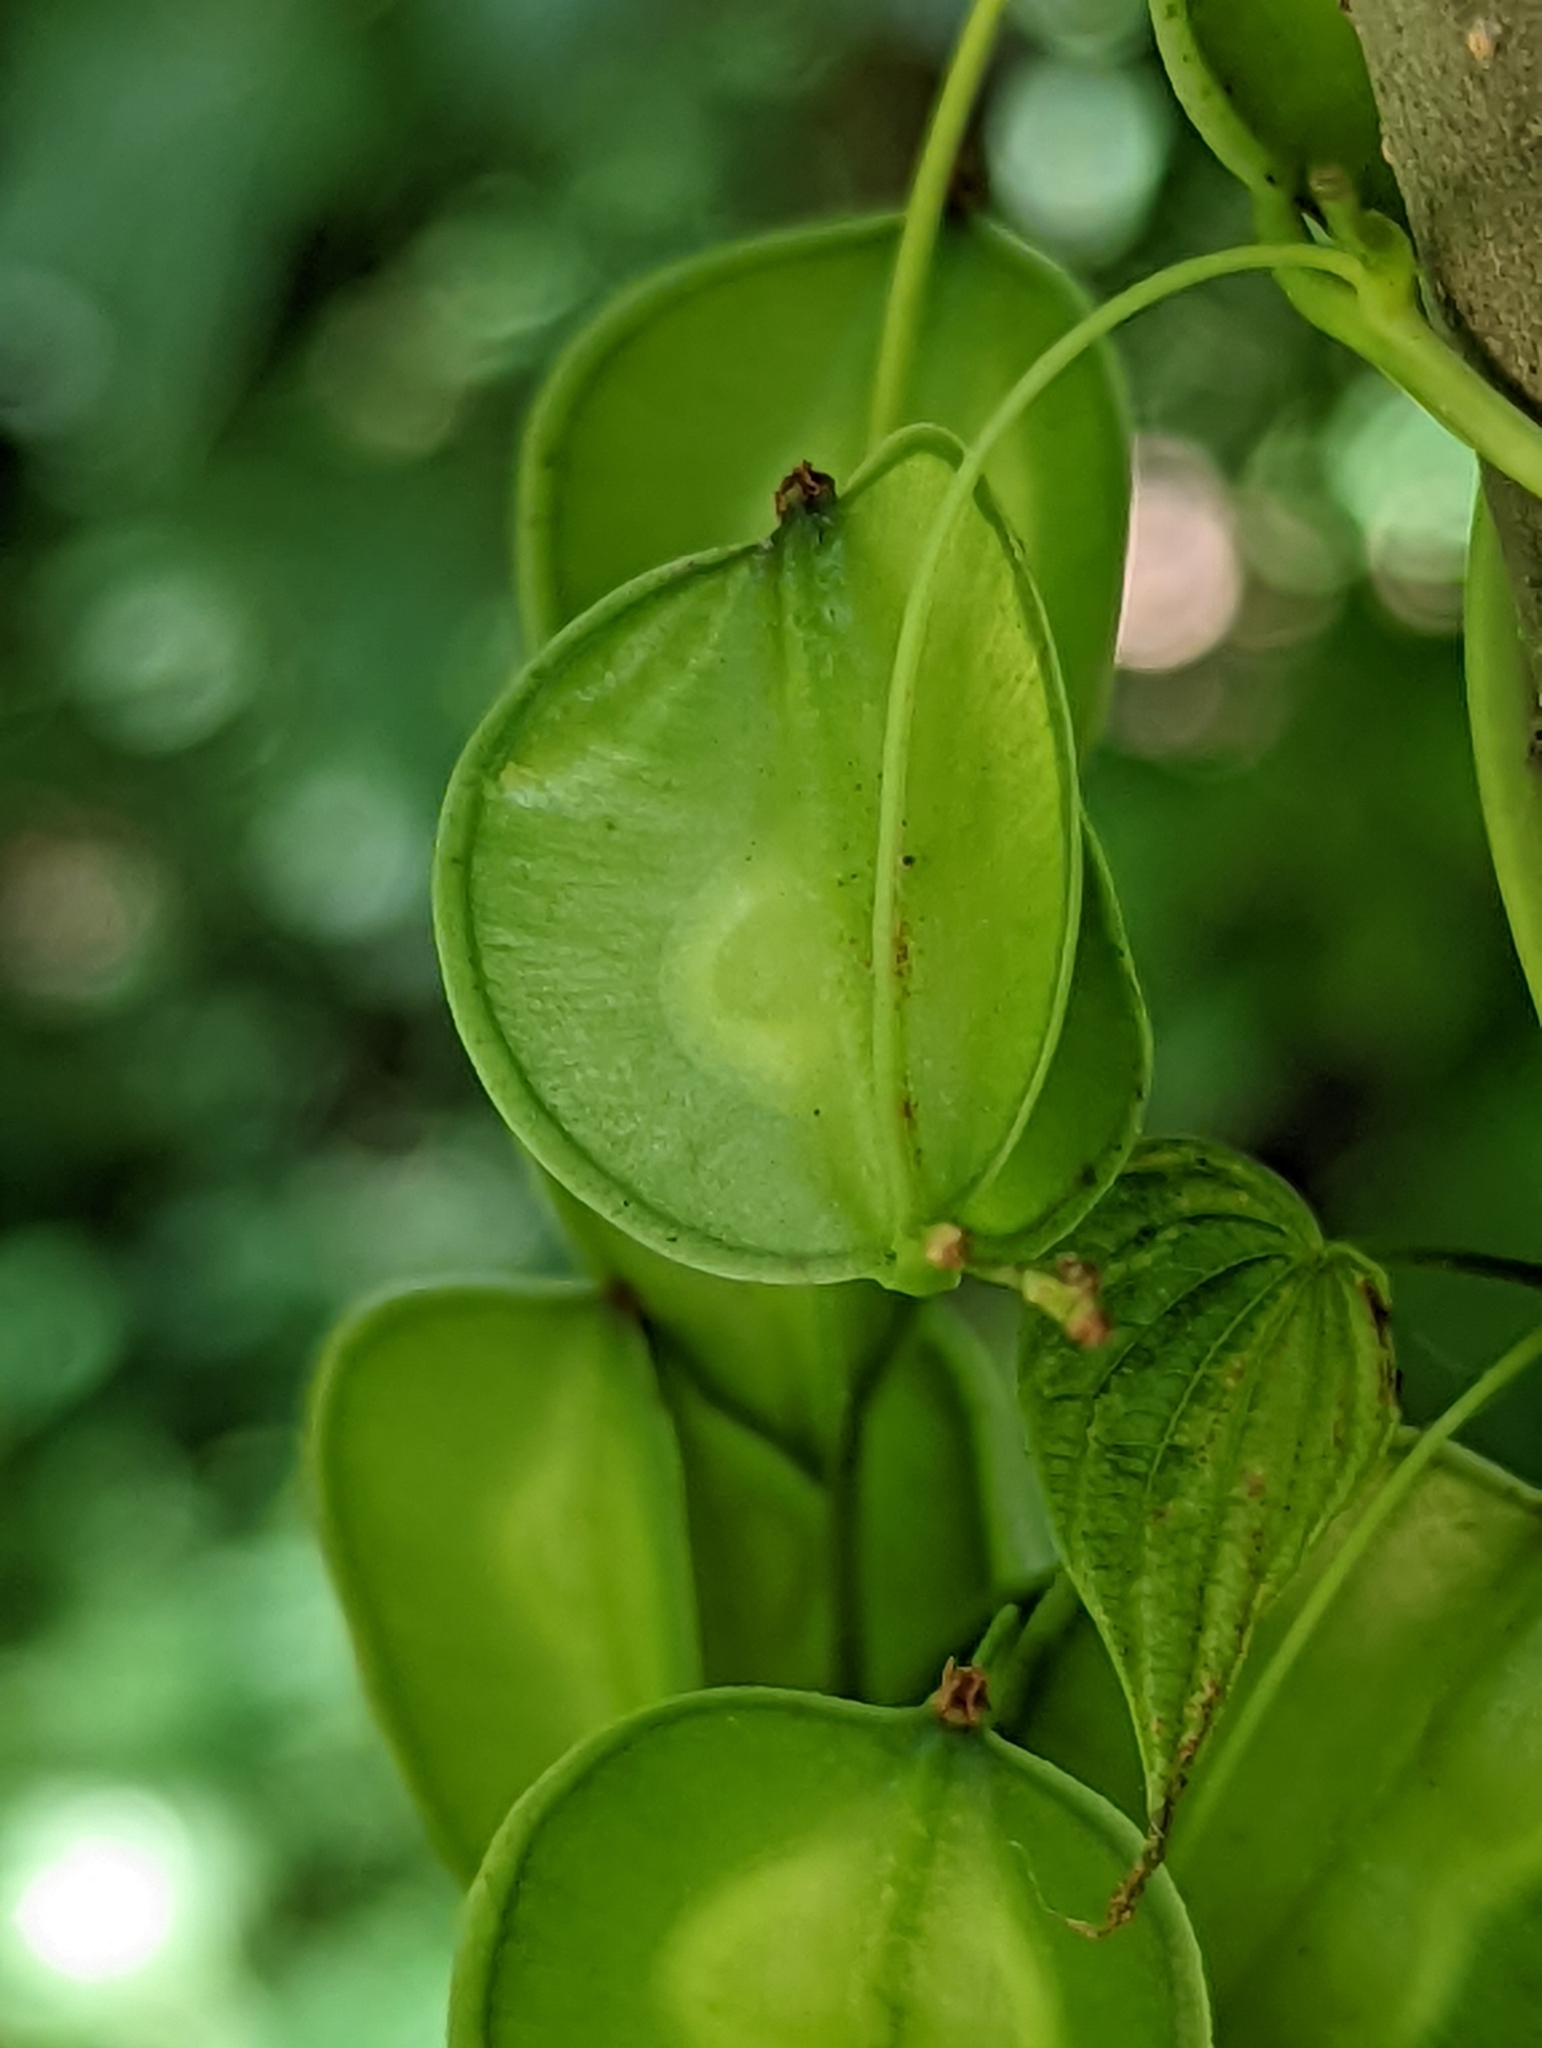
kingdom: Plantae
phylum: Tracheophyta
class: Liliopsida
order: Dioscoreales
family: Dioscoreaceae
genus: Dioscorea
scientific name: Dioscorea villosa
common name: Wild yam
